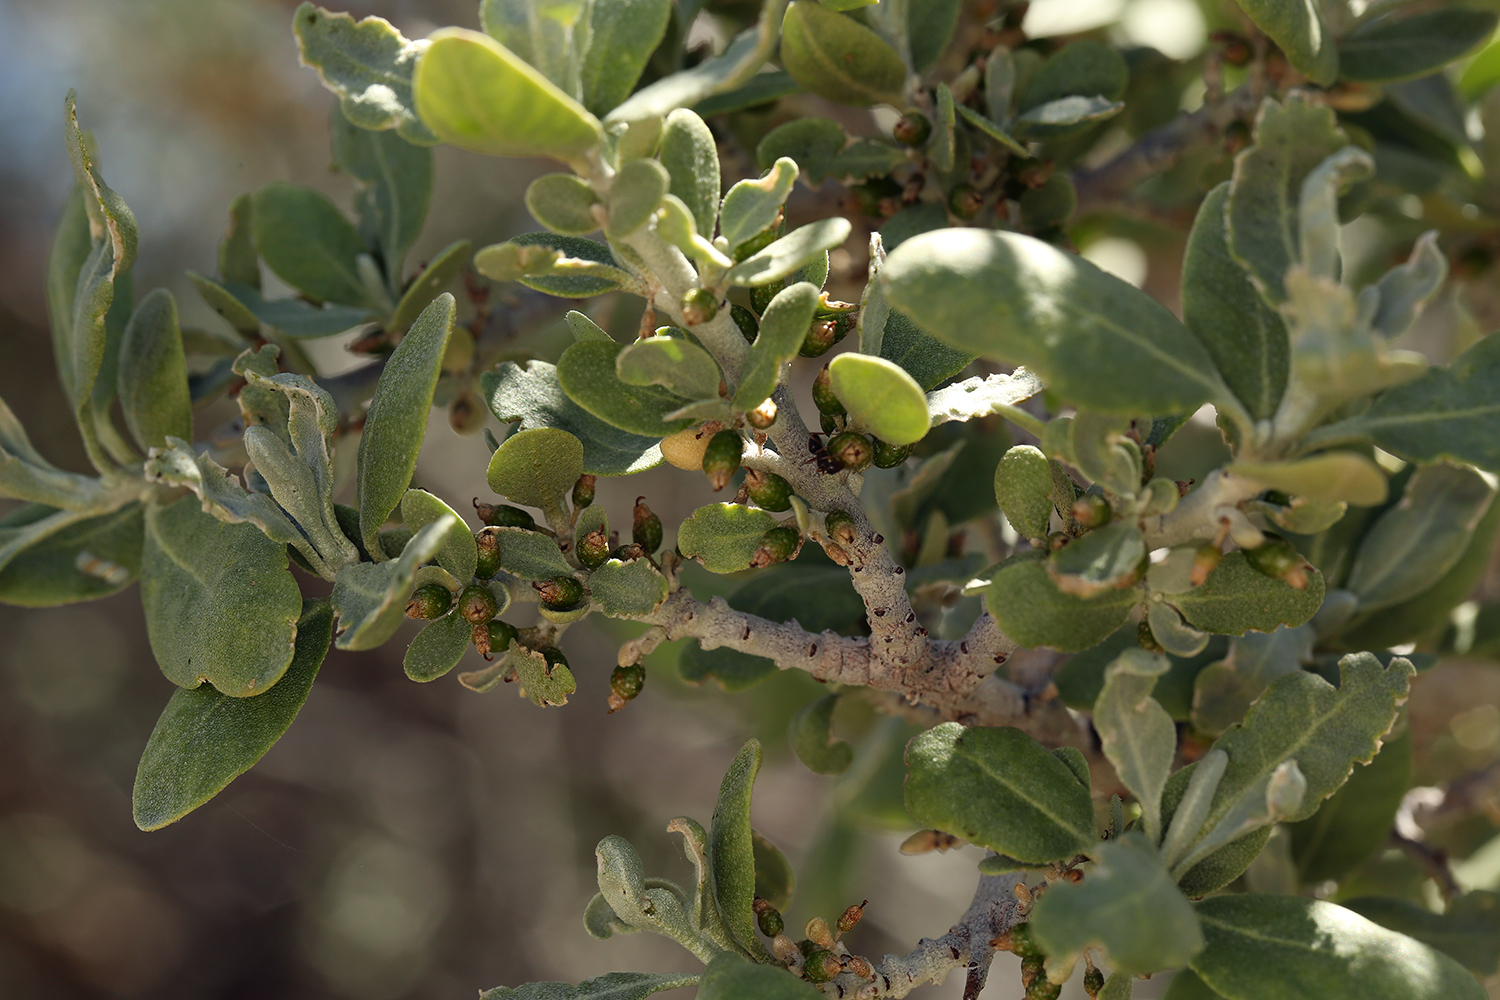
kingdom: Plantae
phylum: Tracheophyta
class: Magnoliopsida
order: Rosales
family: Elaeagnaceae
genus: Shepherdia
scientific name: Shepherdia argentea
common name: Silver buffaloberry
